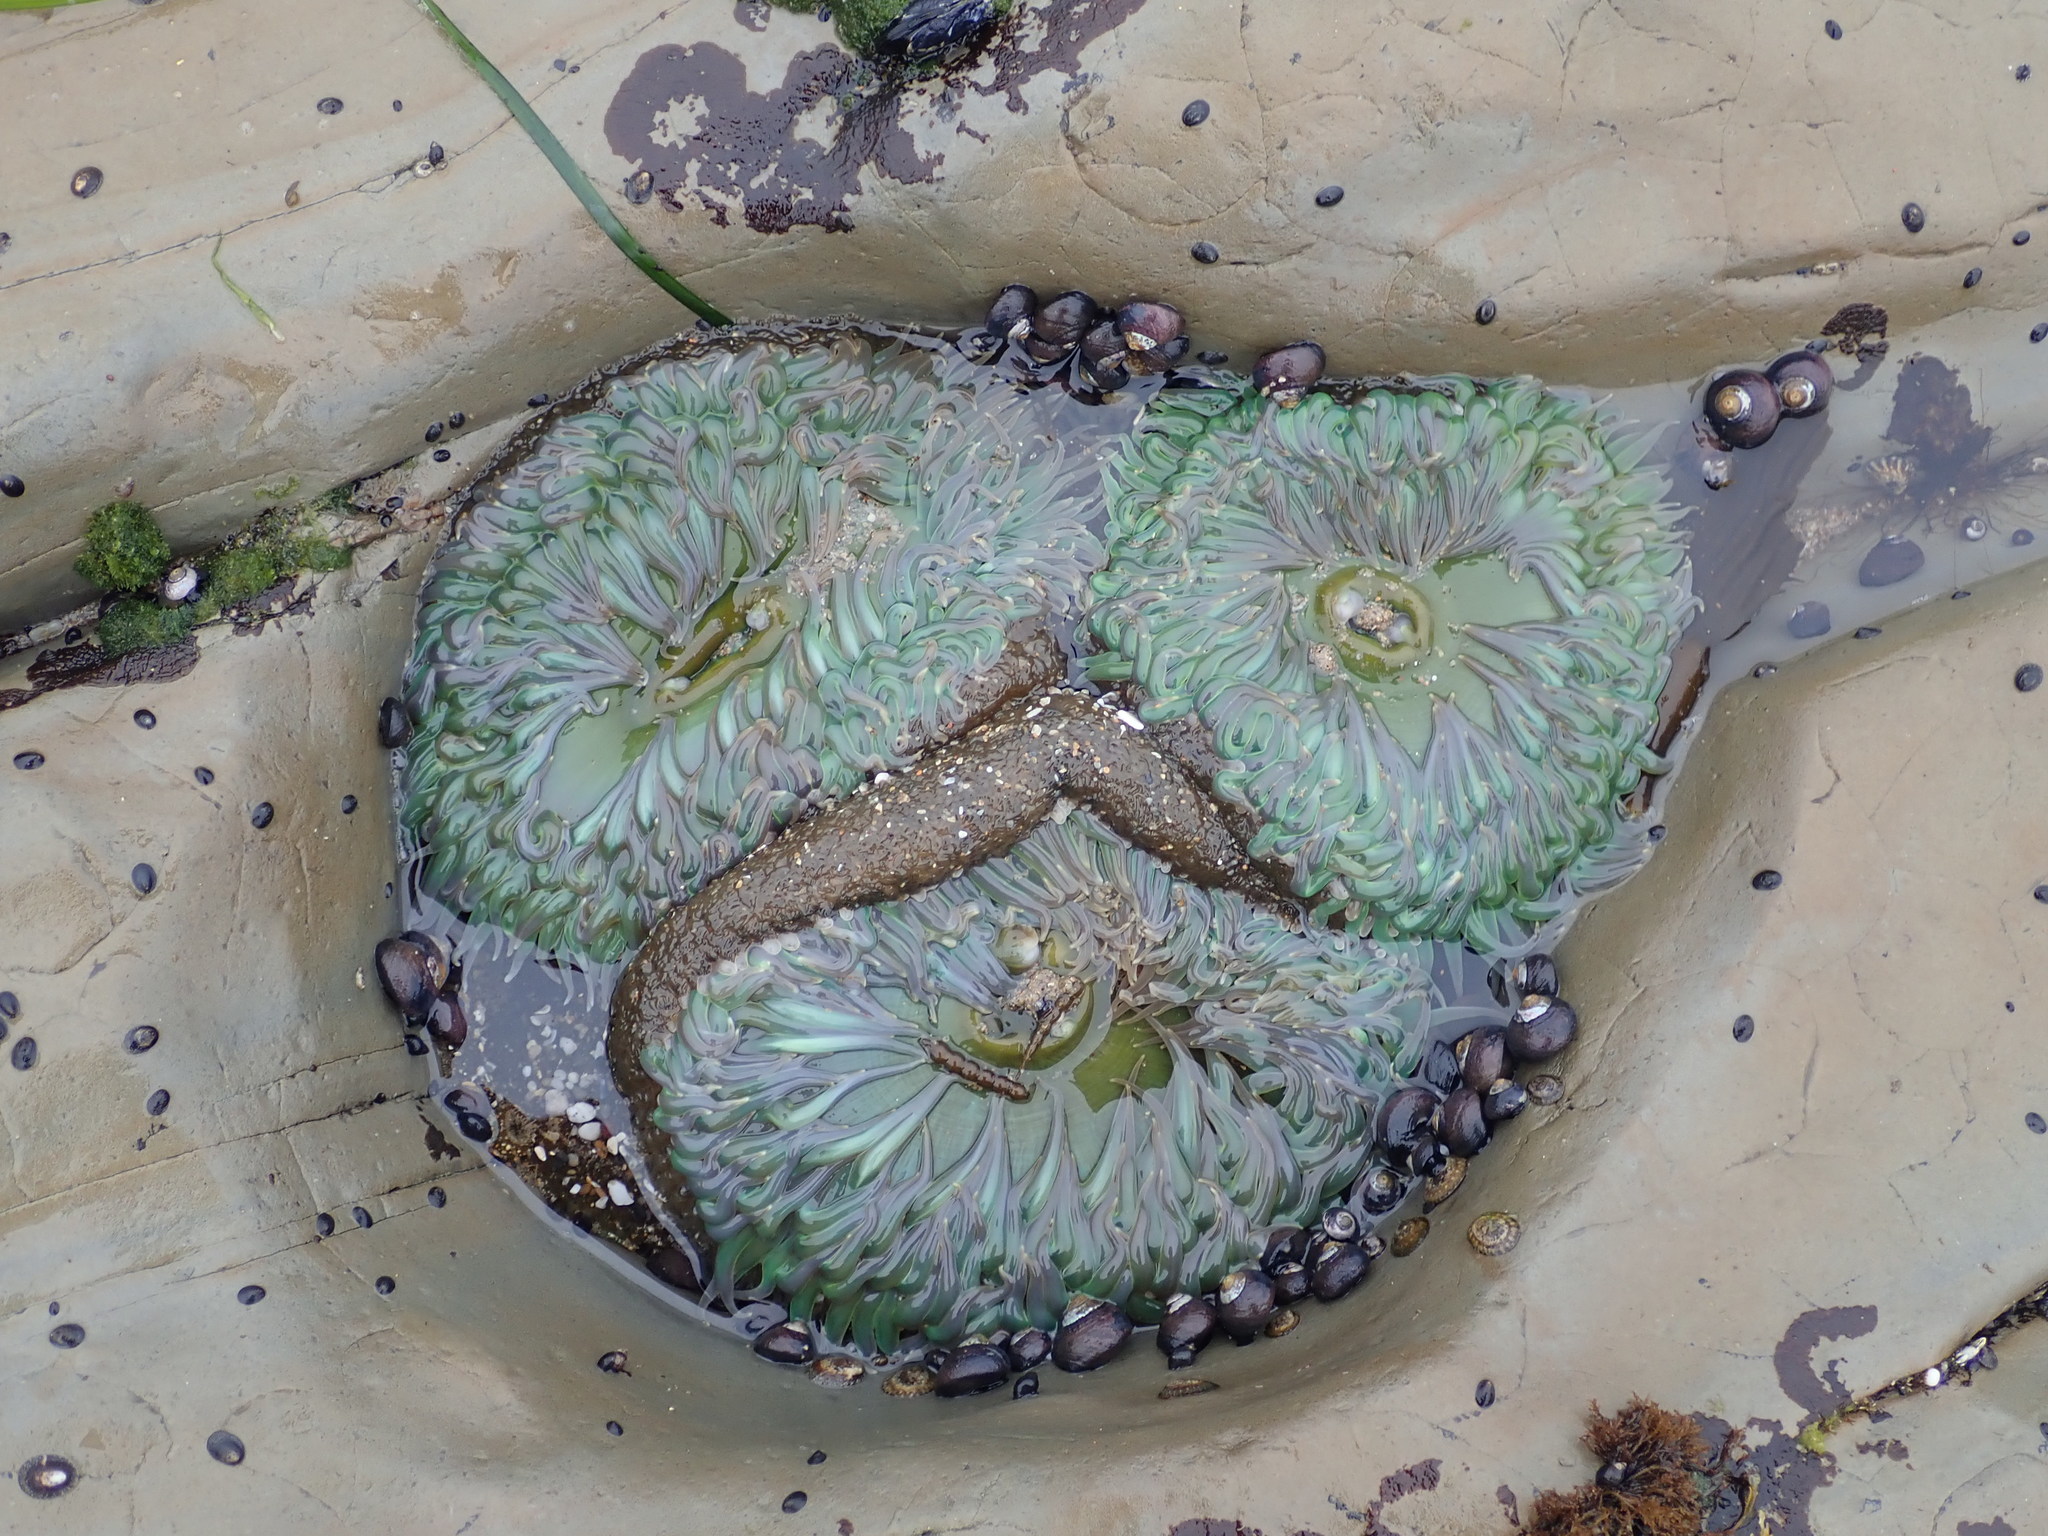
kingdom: Animalia
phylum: Cnidaria
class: Anthozoa
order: Actiniaria
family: Actiniidae
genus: Anthopleura
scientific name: Anthopleura xanthogrammica
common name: Giant green anemone
